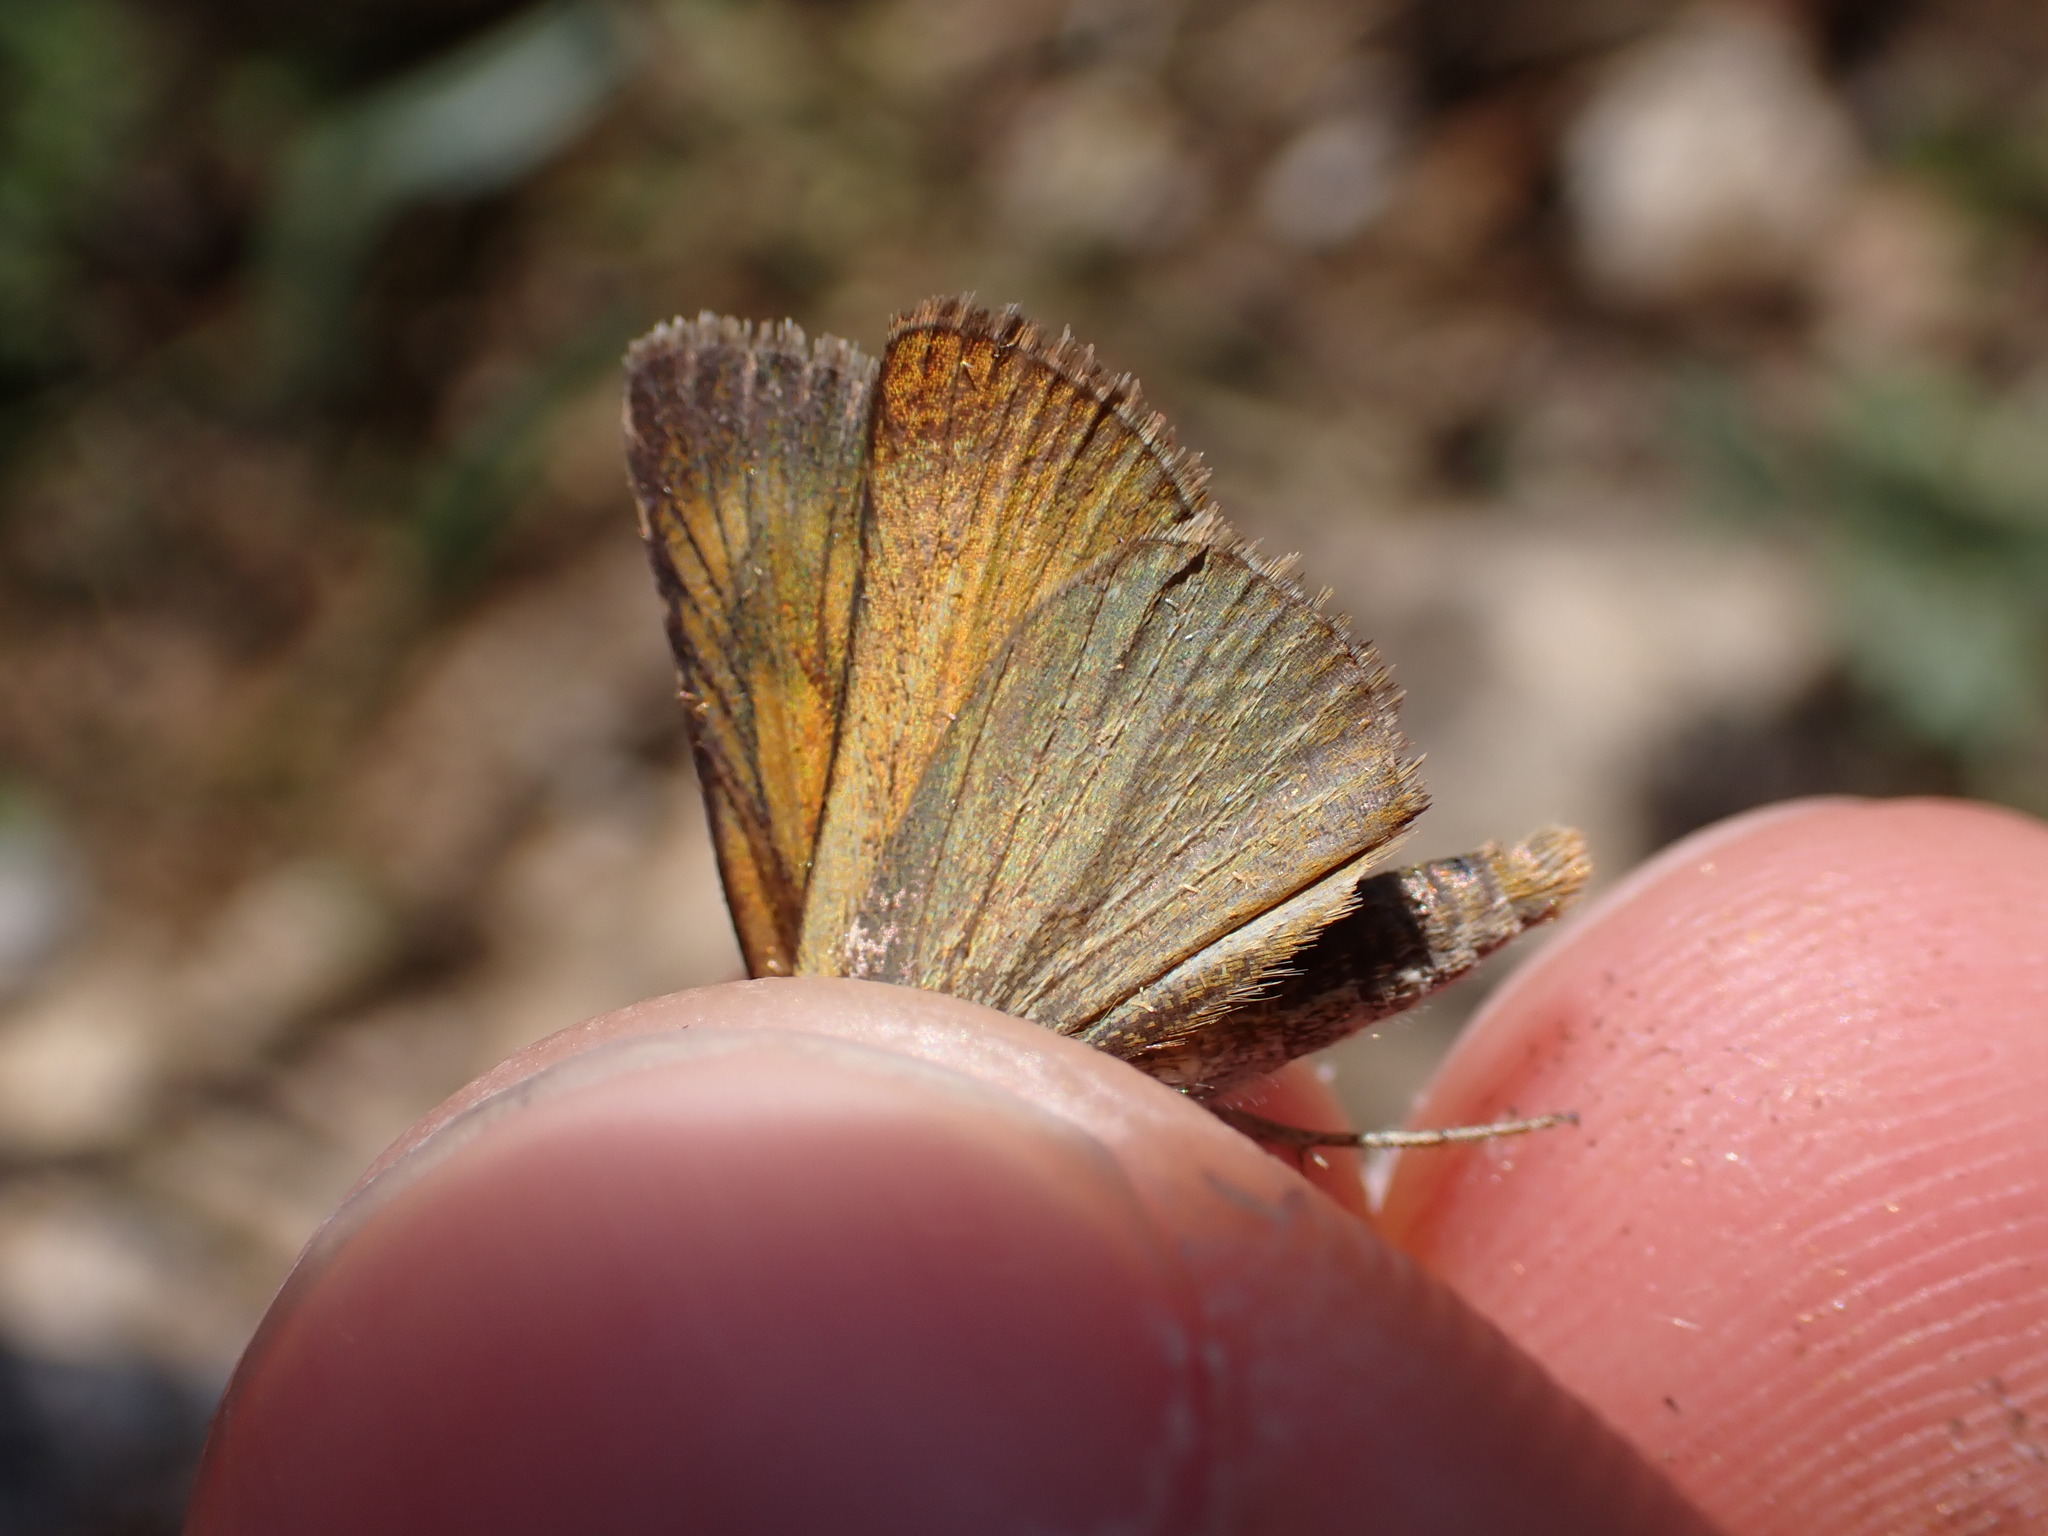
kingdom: Animalia
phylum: Arthropoda
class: Insecta
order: Lepidoptera
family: Hesperiidae
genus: Thymelicus
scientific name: Thymelicus acteon
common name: Lulworth skipper
